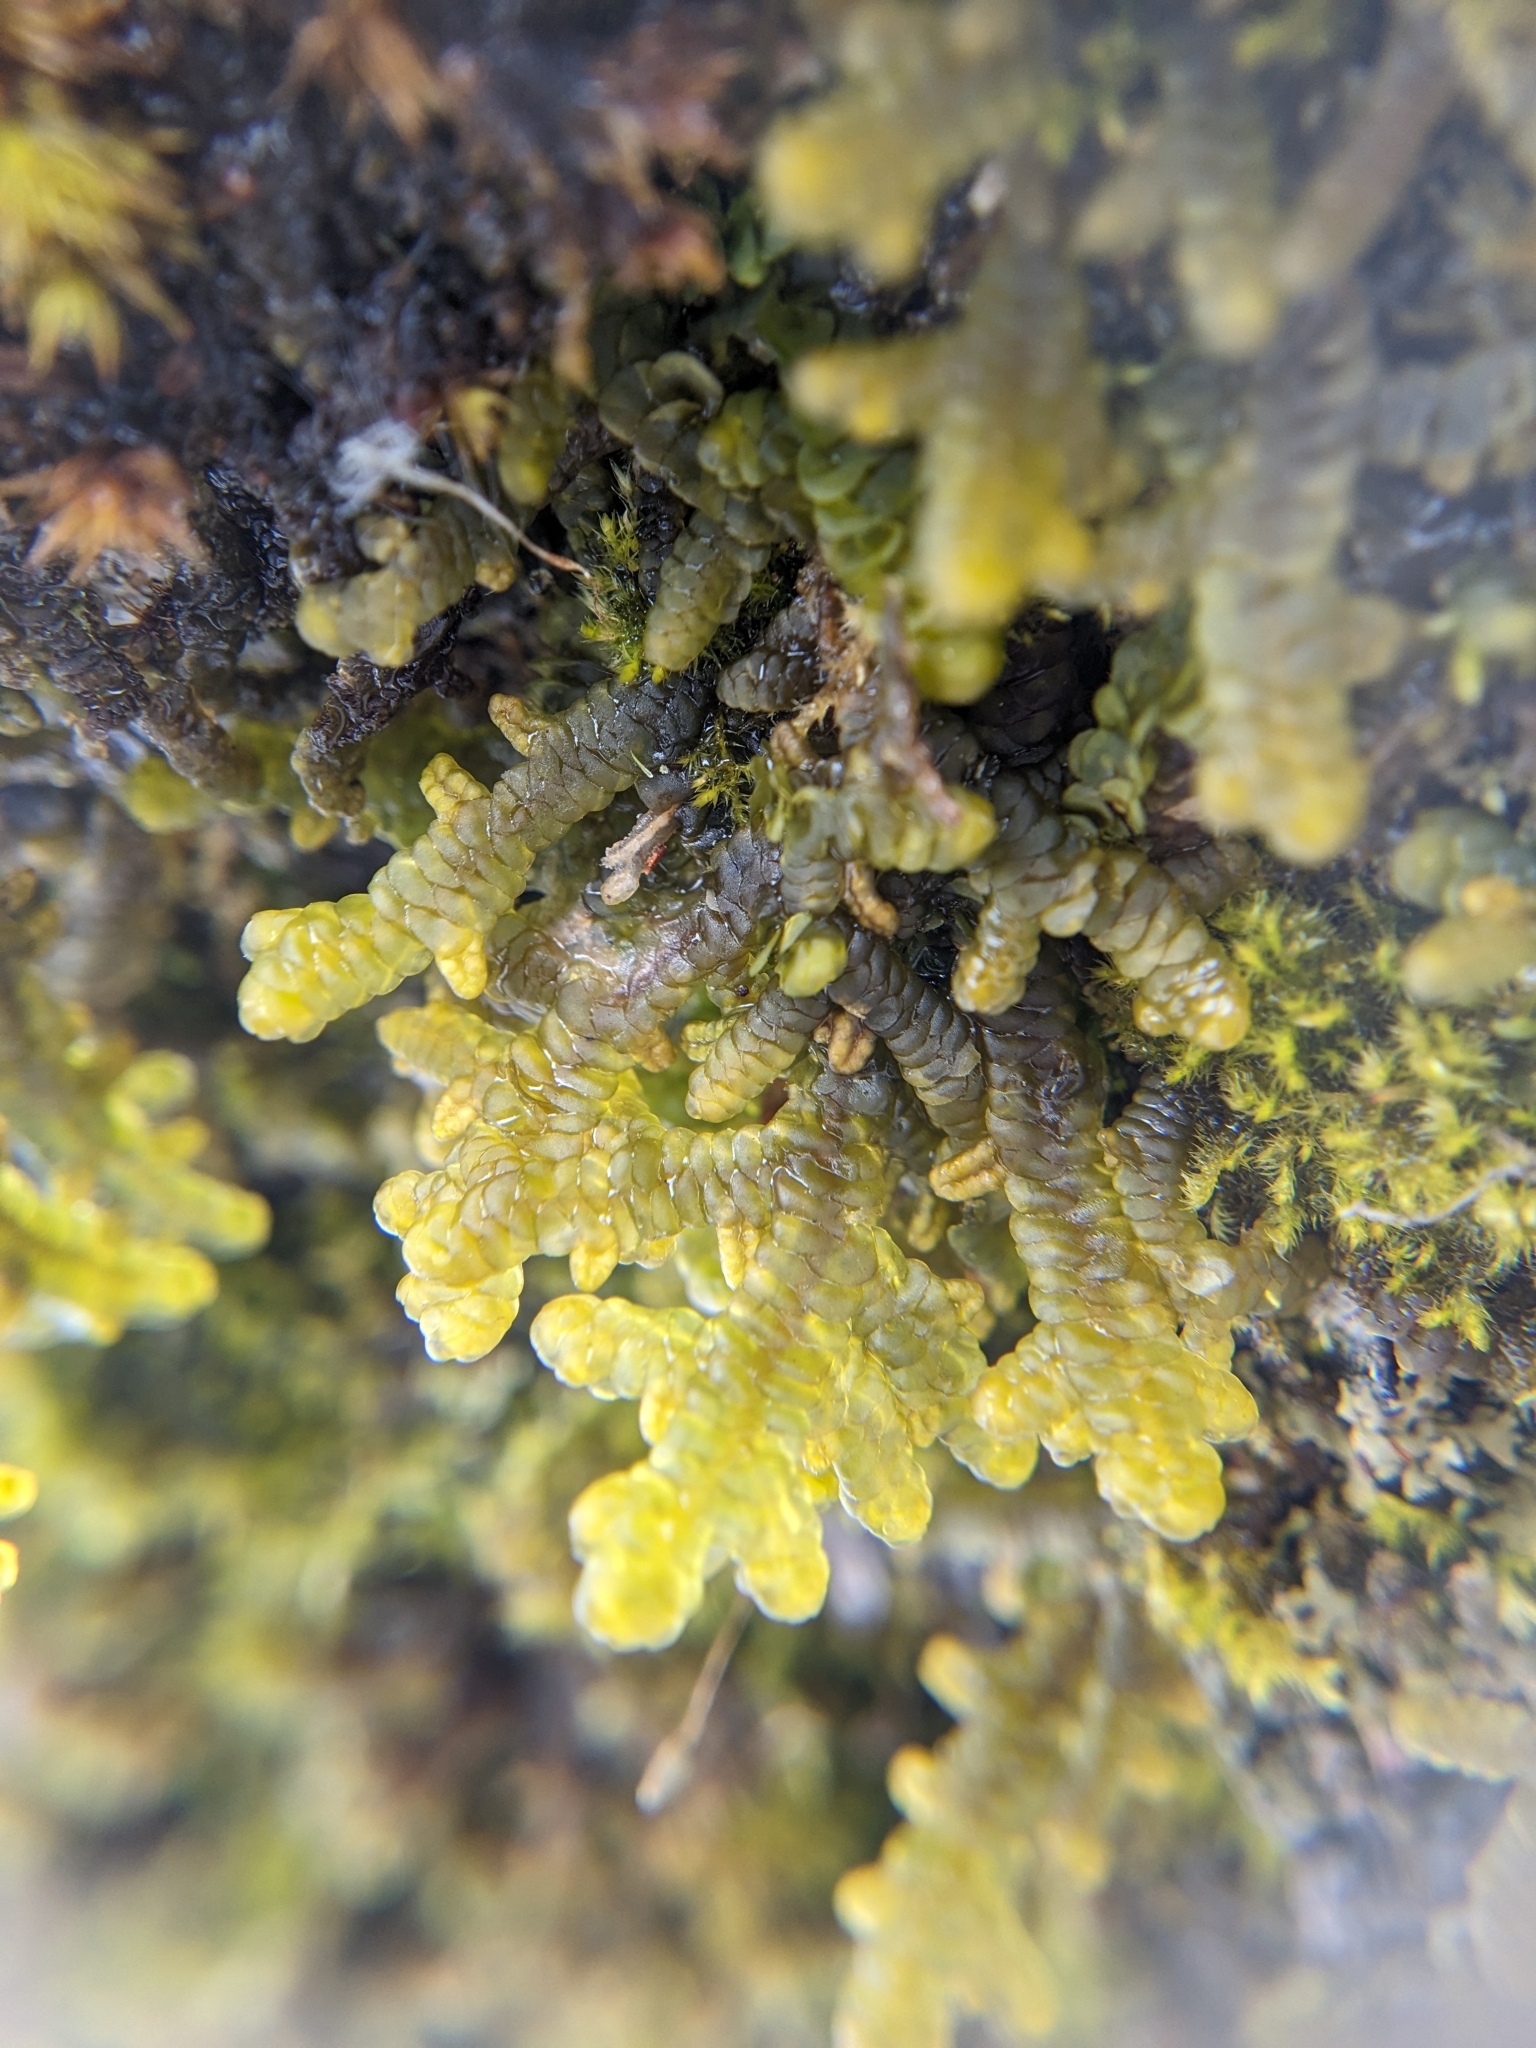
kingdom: Plantae
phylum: Marchantiophyta
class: Jungermanniopsida
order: Porellales
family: Porellaceae
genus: Porella
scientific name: Porella platyphylla
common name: Wall scalewort
